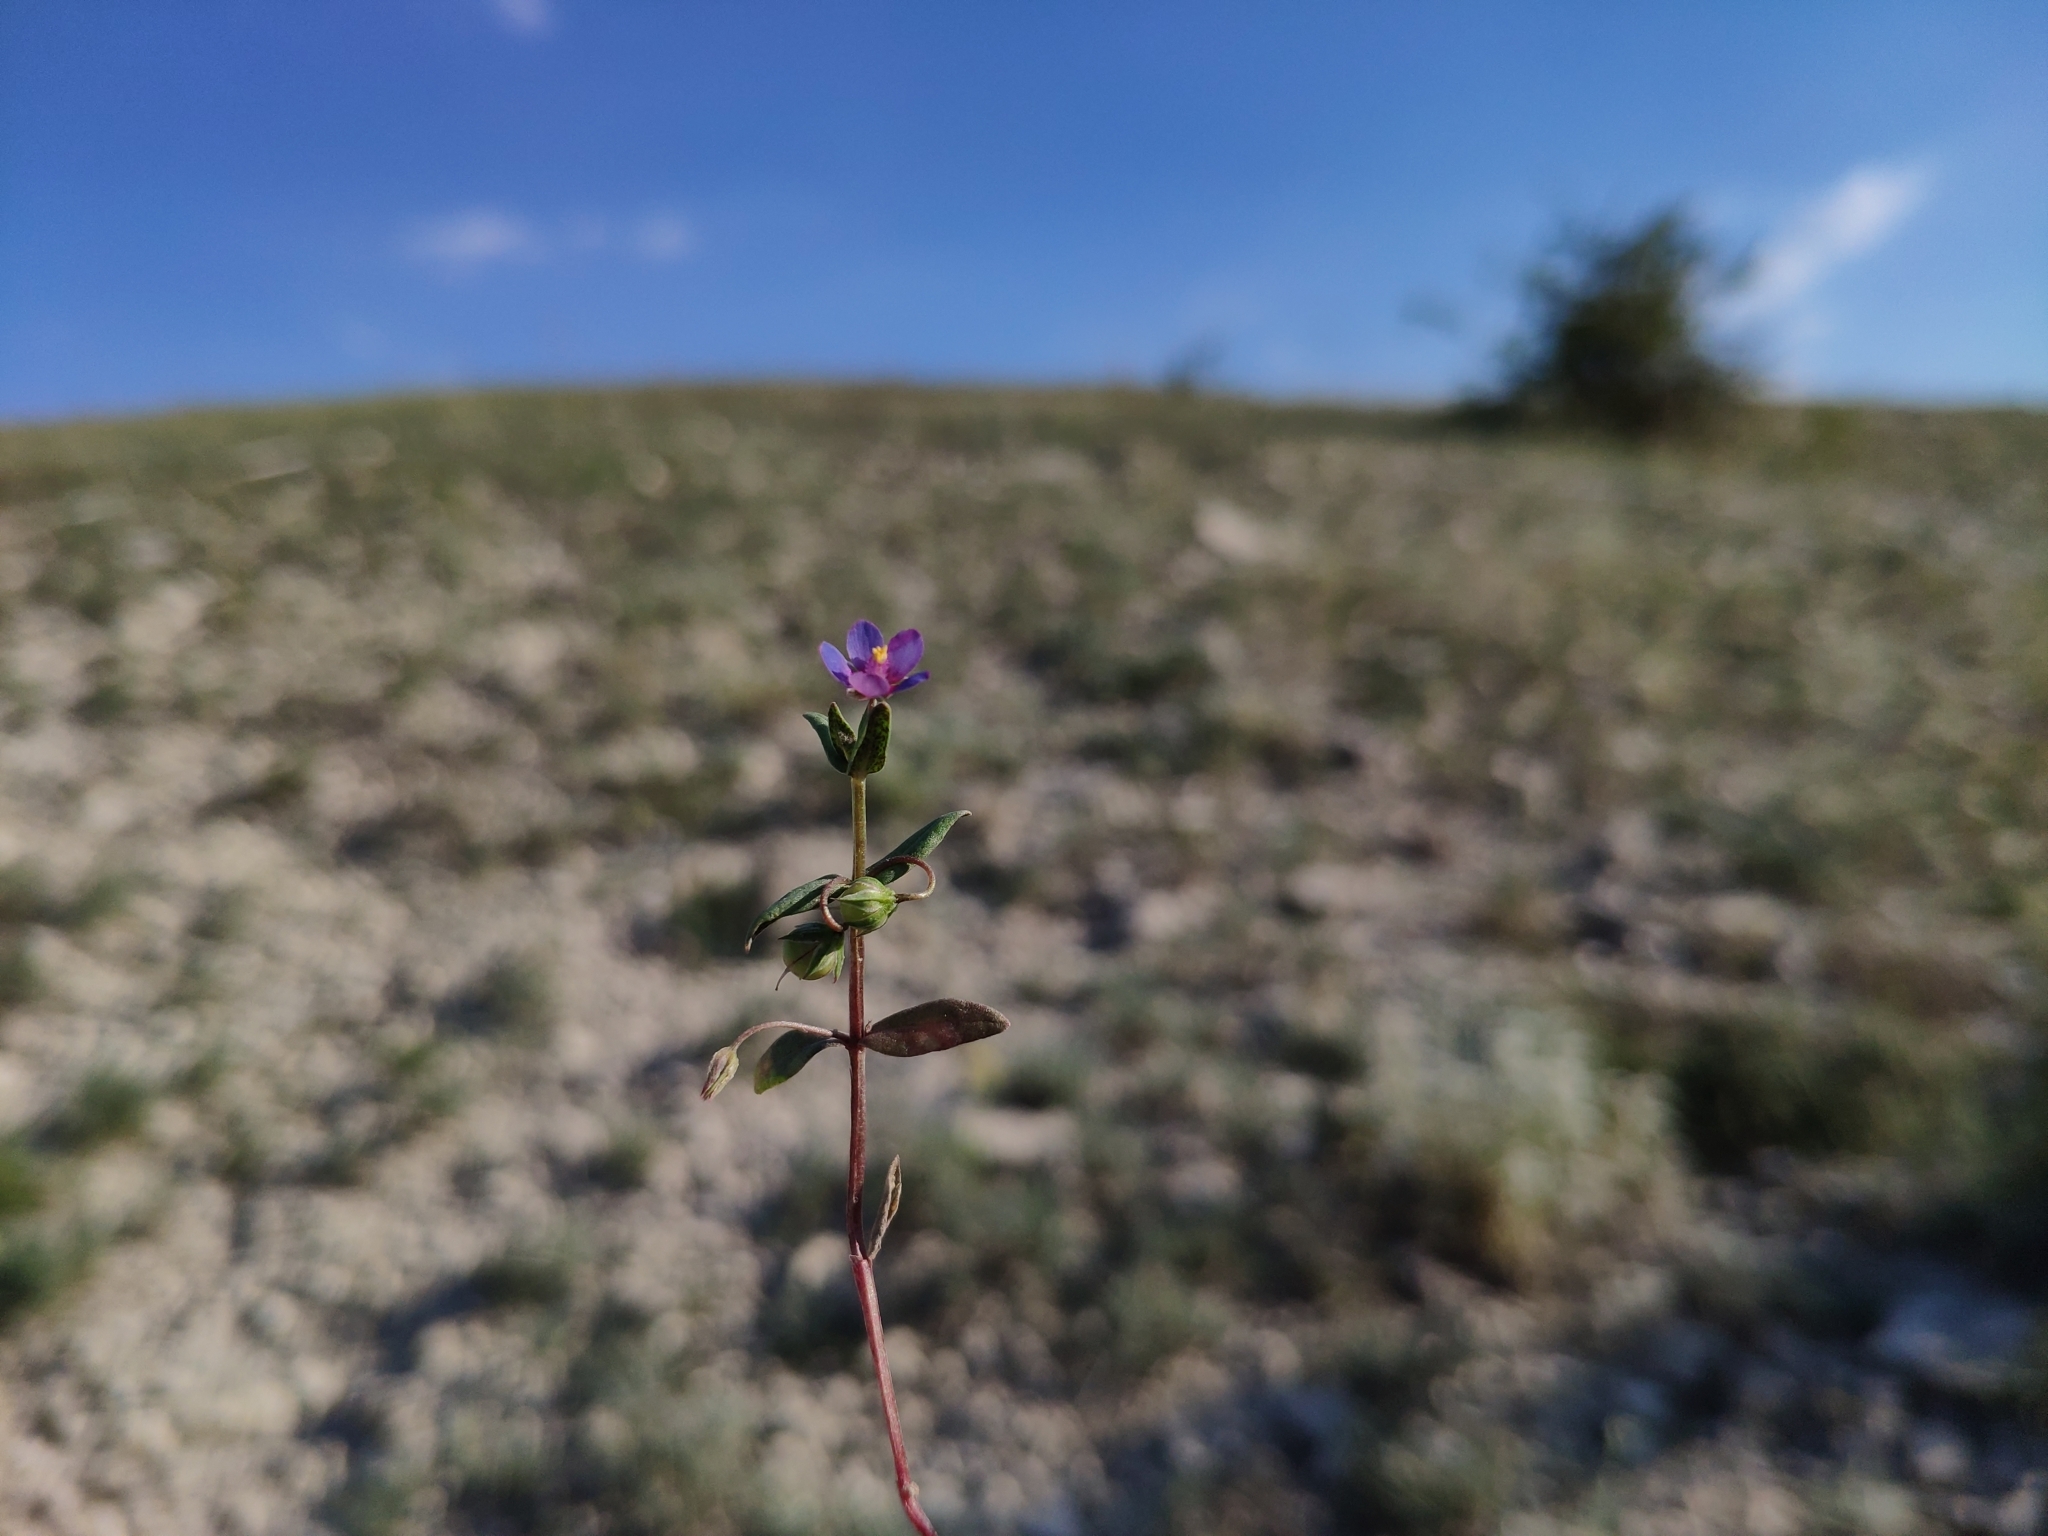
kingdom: Plantae
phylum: Tracheophyta
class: Magnoliopsida
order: Ericales
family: Primulaceae
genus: Lysimachia
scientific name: Lysimachia arvensis
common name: Scarlet pimpernel
